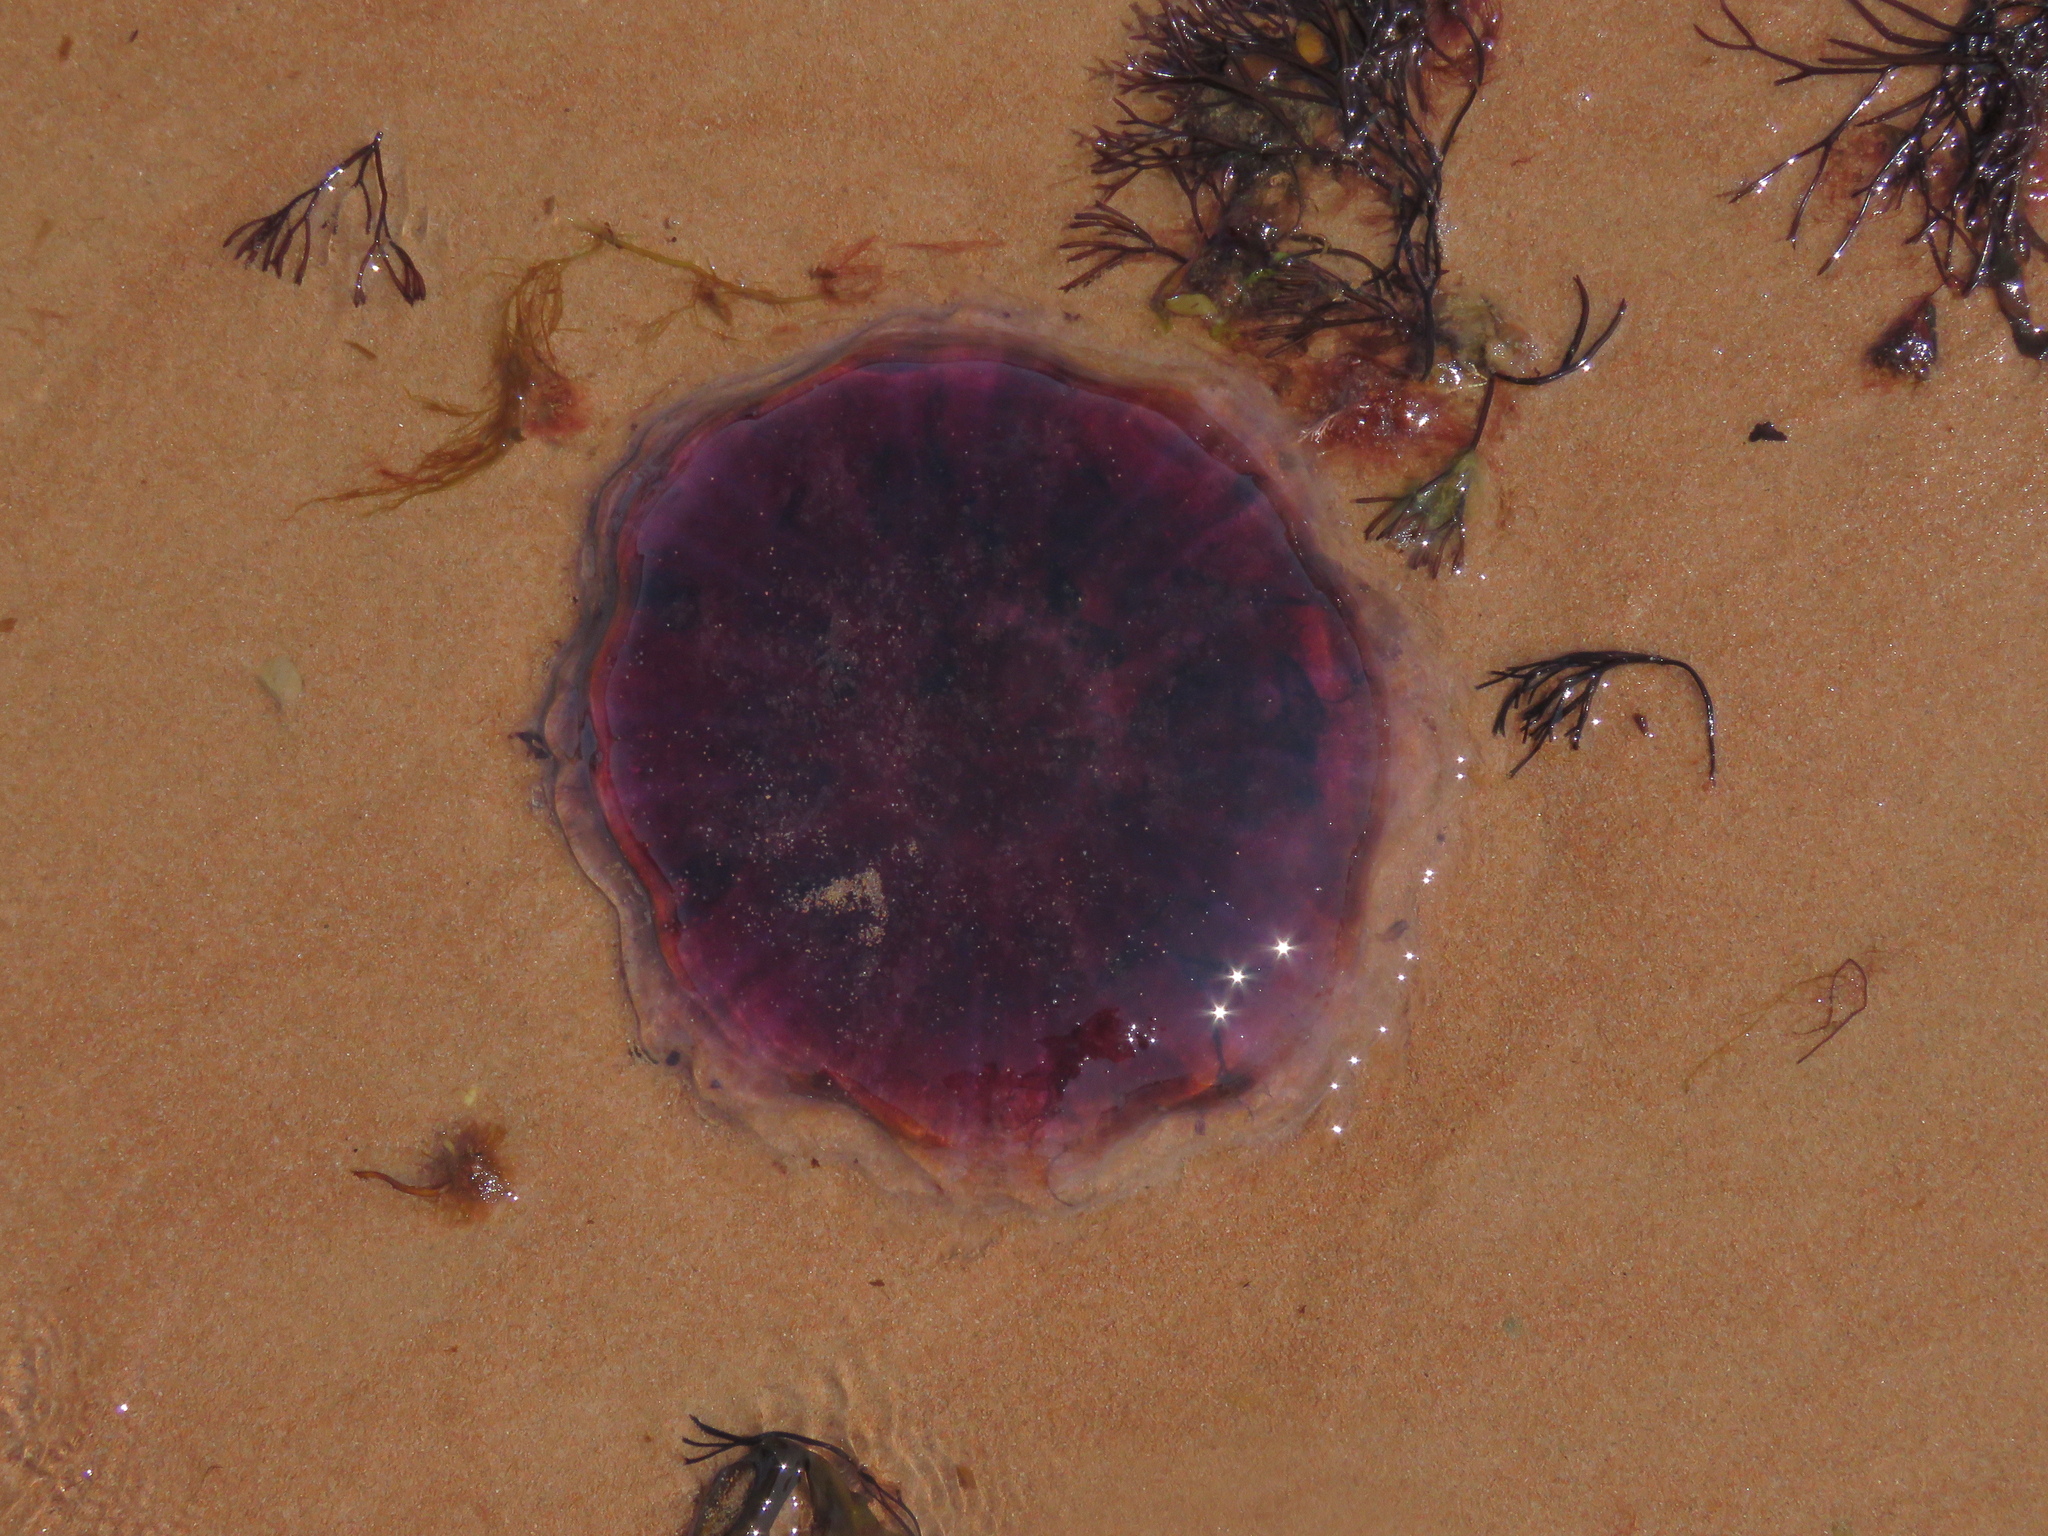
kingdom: Animalia
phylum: Cnidaria
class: Scyphozoa
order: Semaeostomeae
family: Cyaneidae
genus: Cyanea
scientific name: Cyanea
